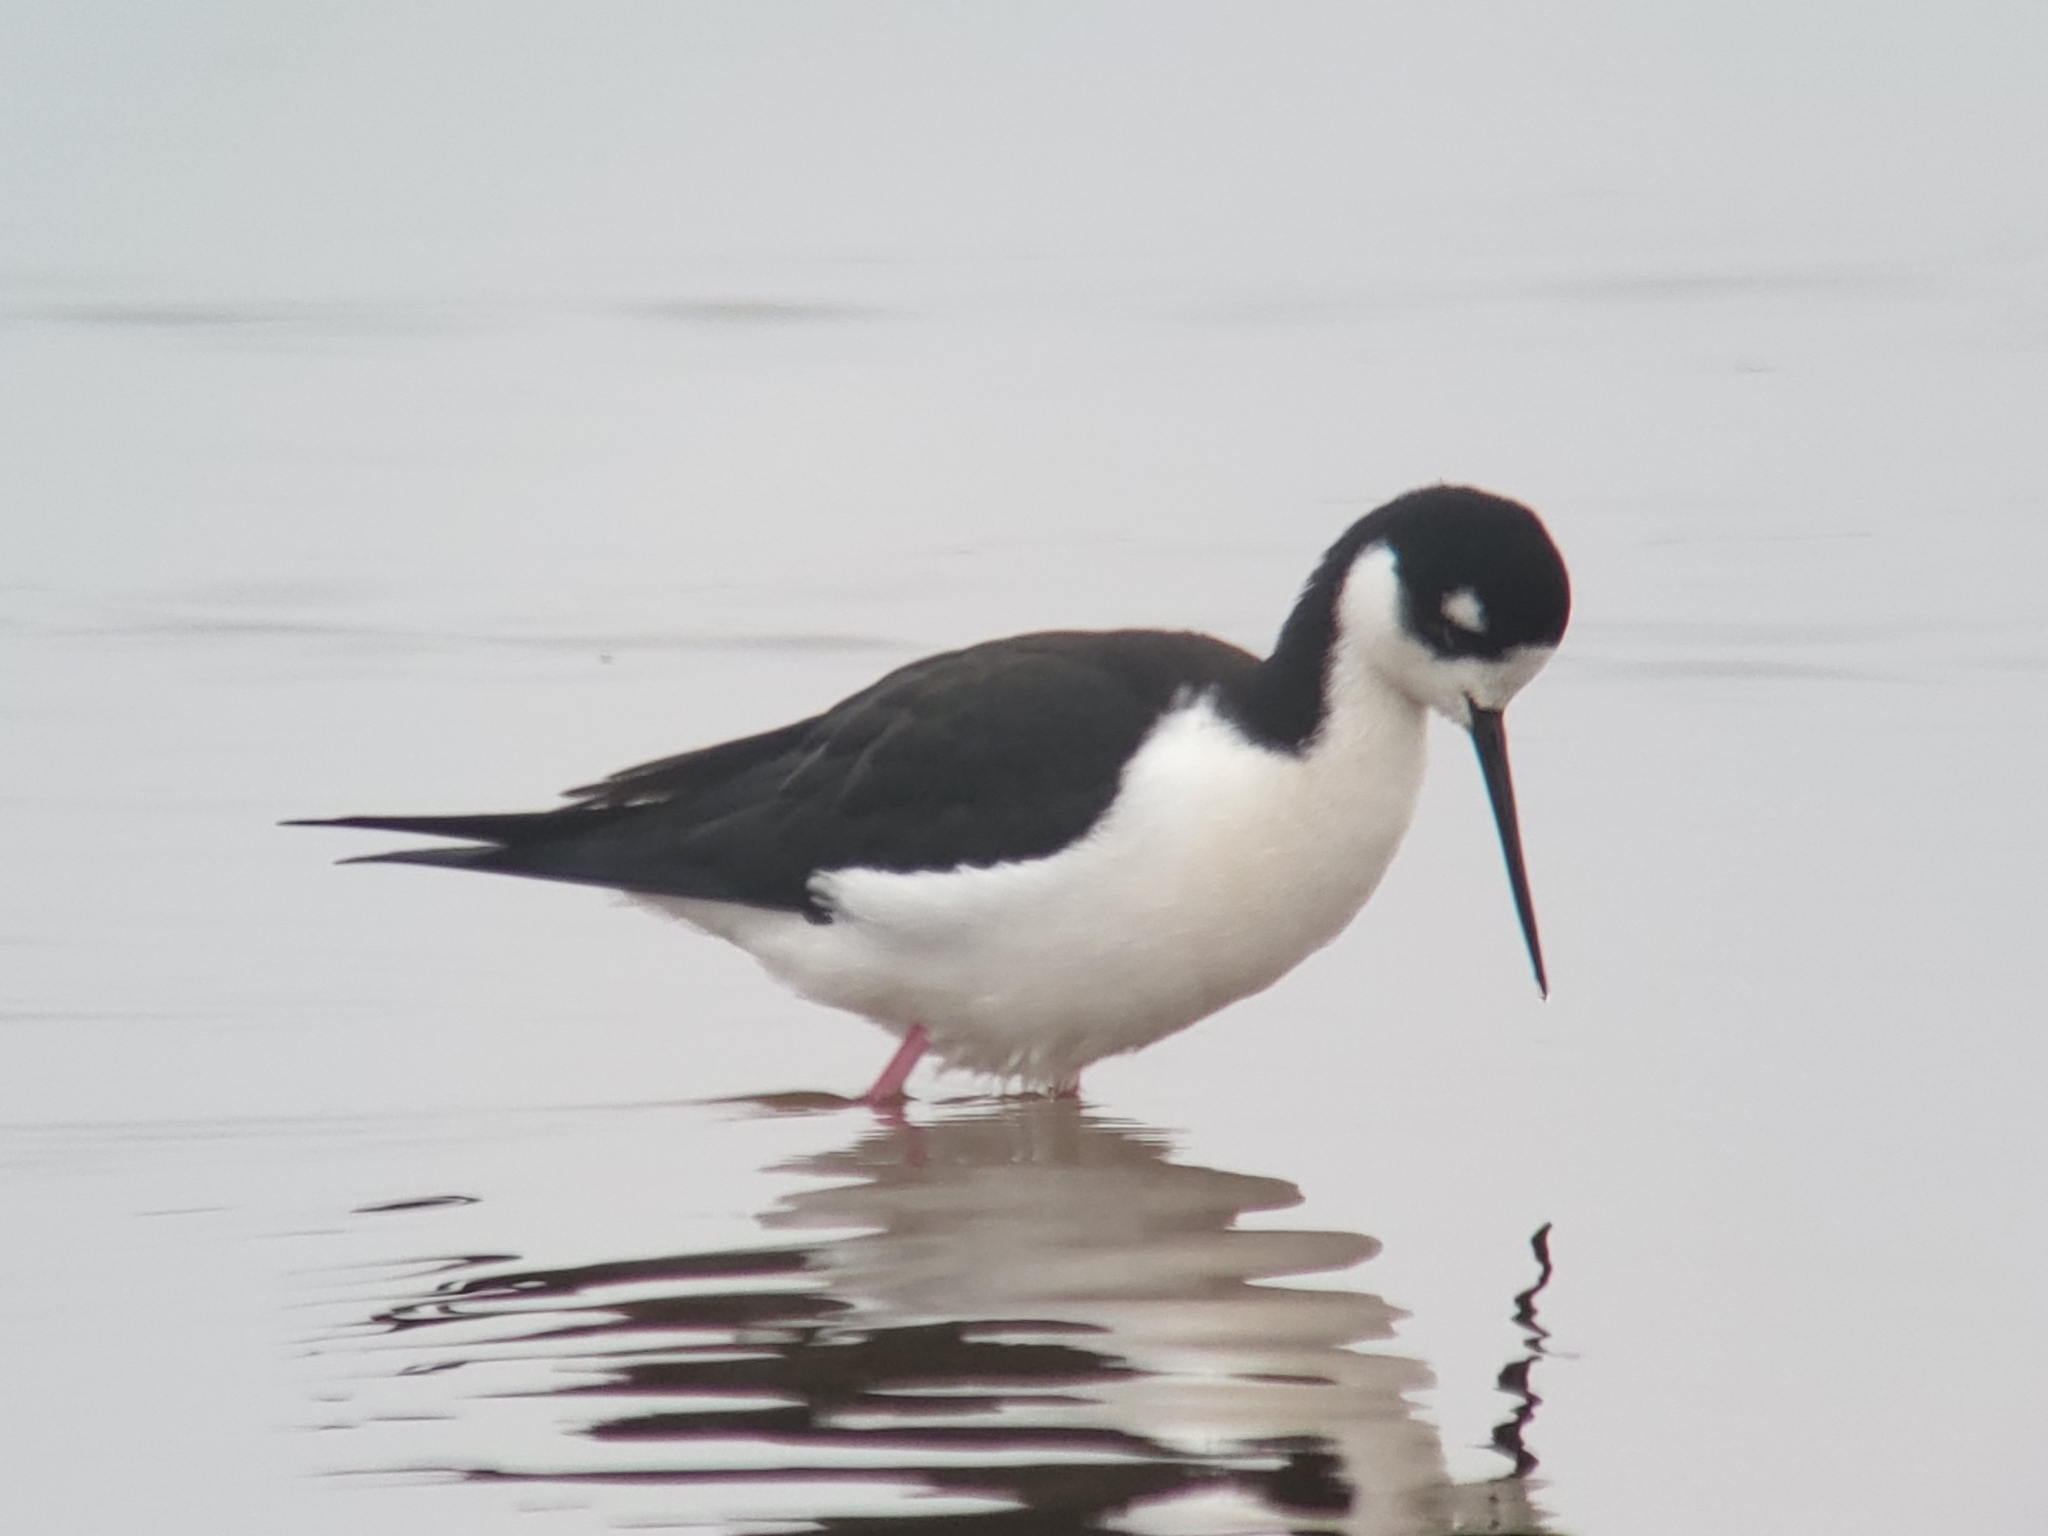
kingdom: Animalia
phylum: Chordata
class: Aves
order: Charadriiformes
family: Recurvirostridae
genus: Himantopus
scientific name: Himantopus mexicanus
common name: Black-necked stilt
